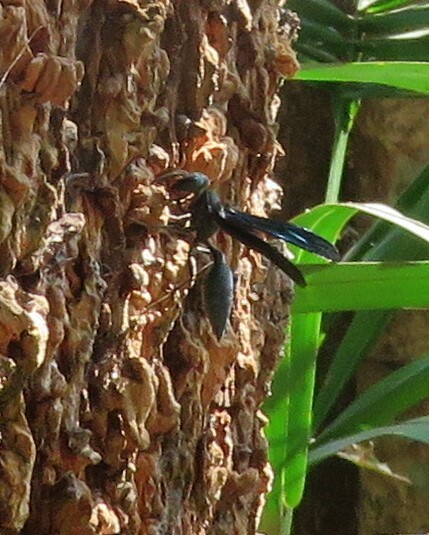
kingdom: Animalia
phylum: Arthropoda
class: Insecta
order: Hymenoptera
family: Vespidae
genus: Synoeca
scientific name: Synoeca septentrionalis
